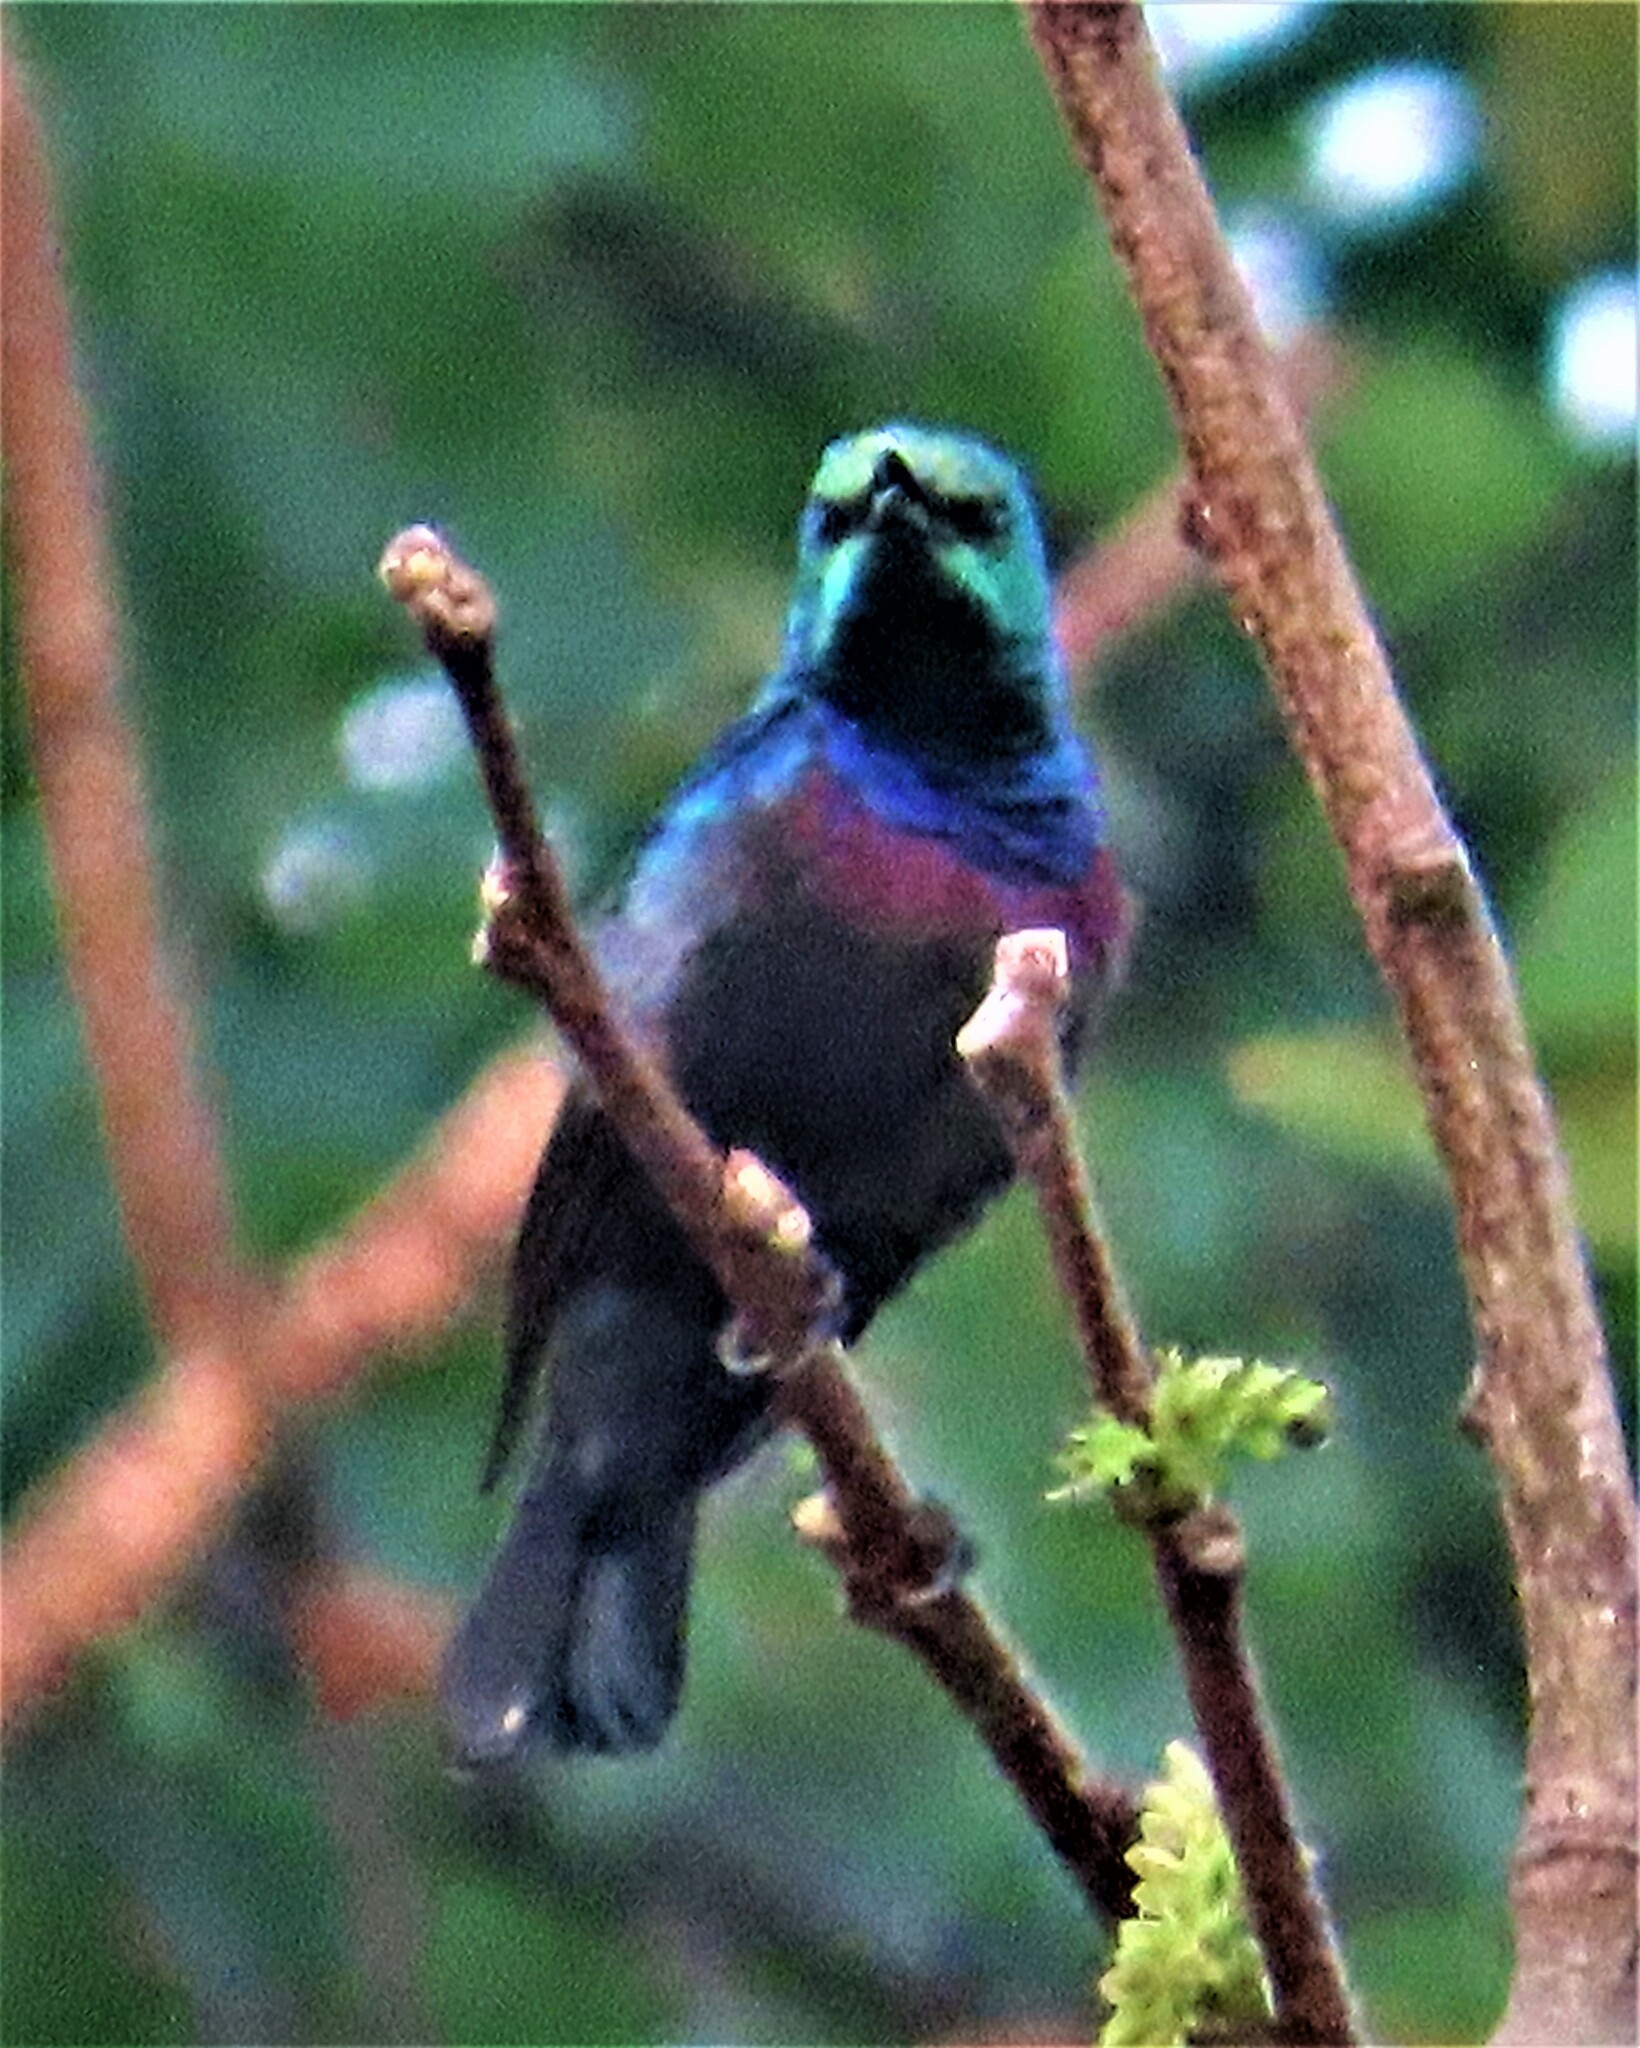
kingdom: Animalia
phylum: Chordata
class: Aves
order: Passeriformes
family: Nectariniidae
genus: Cinnyris
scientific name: Cinnyris bifasciatus
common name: Purple-banded sunbird
